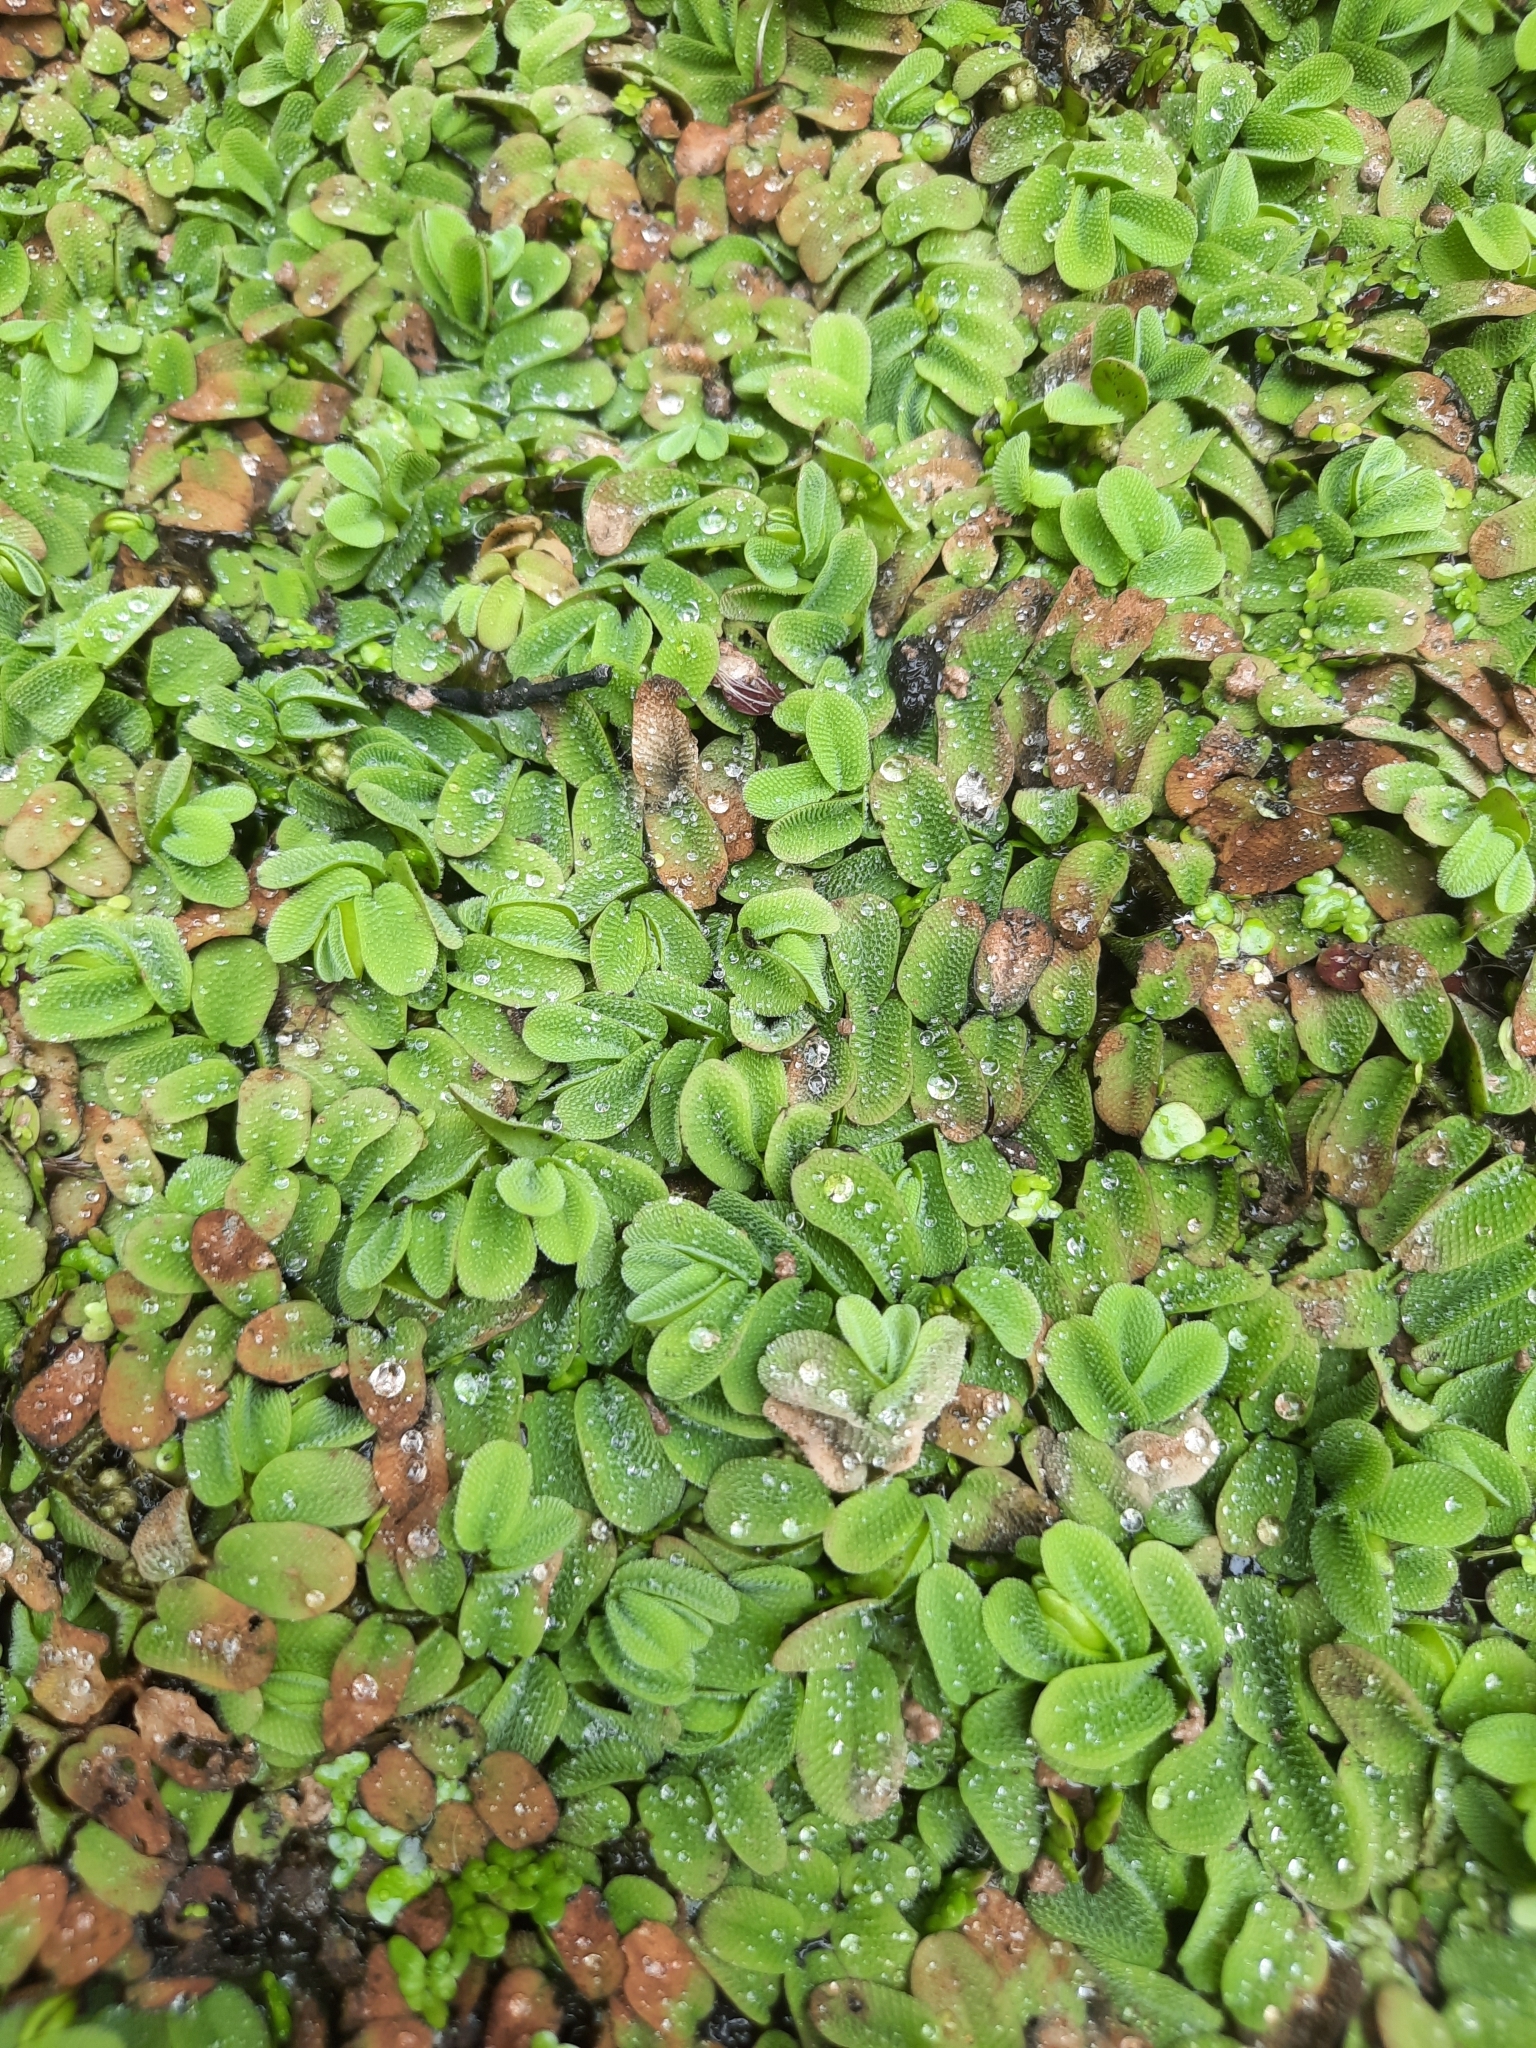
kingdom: Plantae
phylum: Tracheophyta
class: Polypodiopsida
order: Salviniales
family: Salviniaceae
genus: Salvinia
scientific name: Salvinia natans
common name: Floating fern
